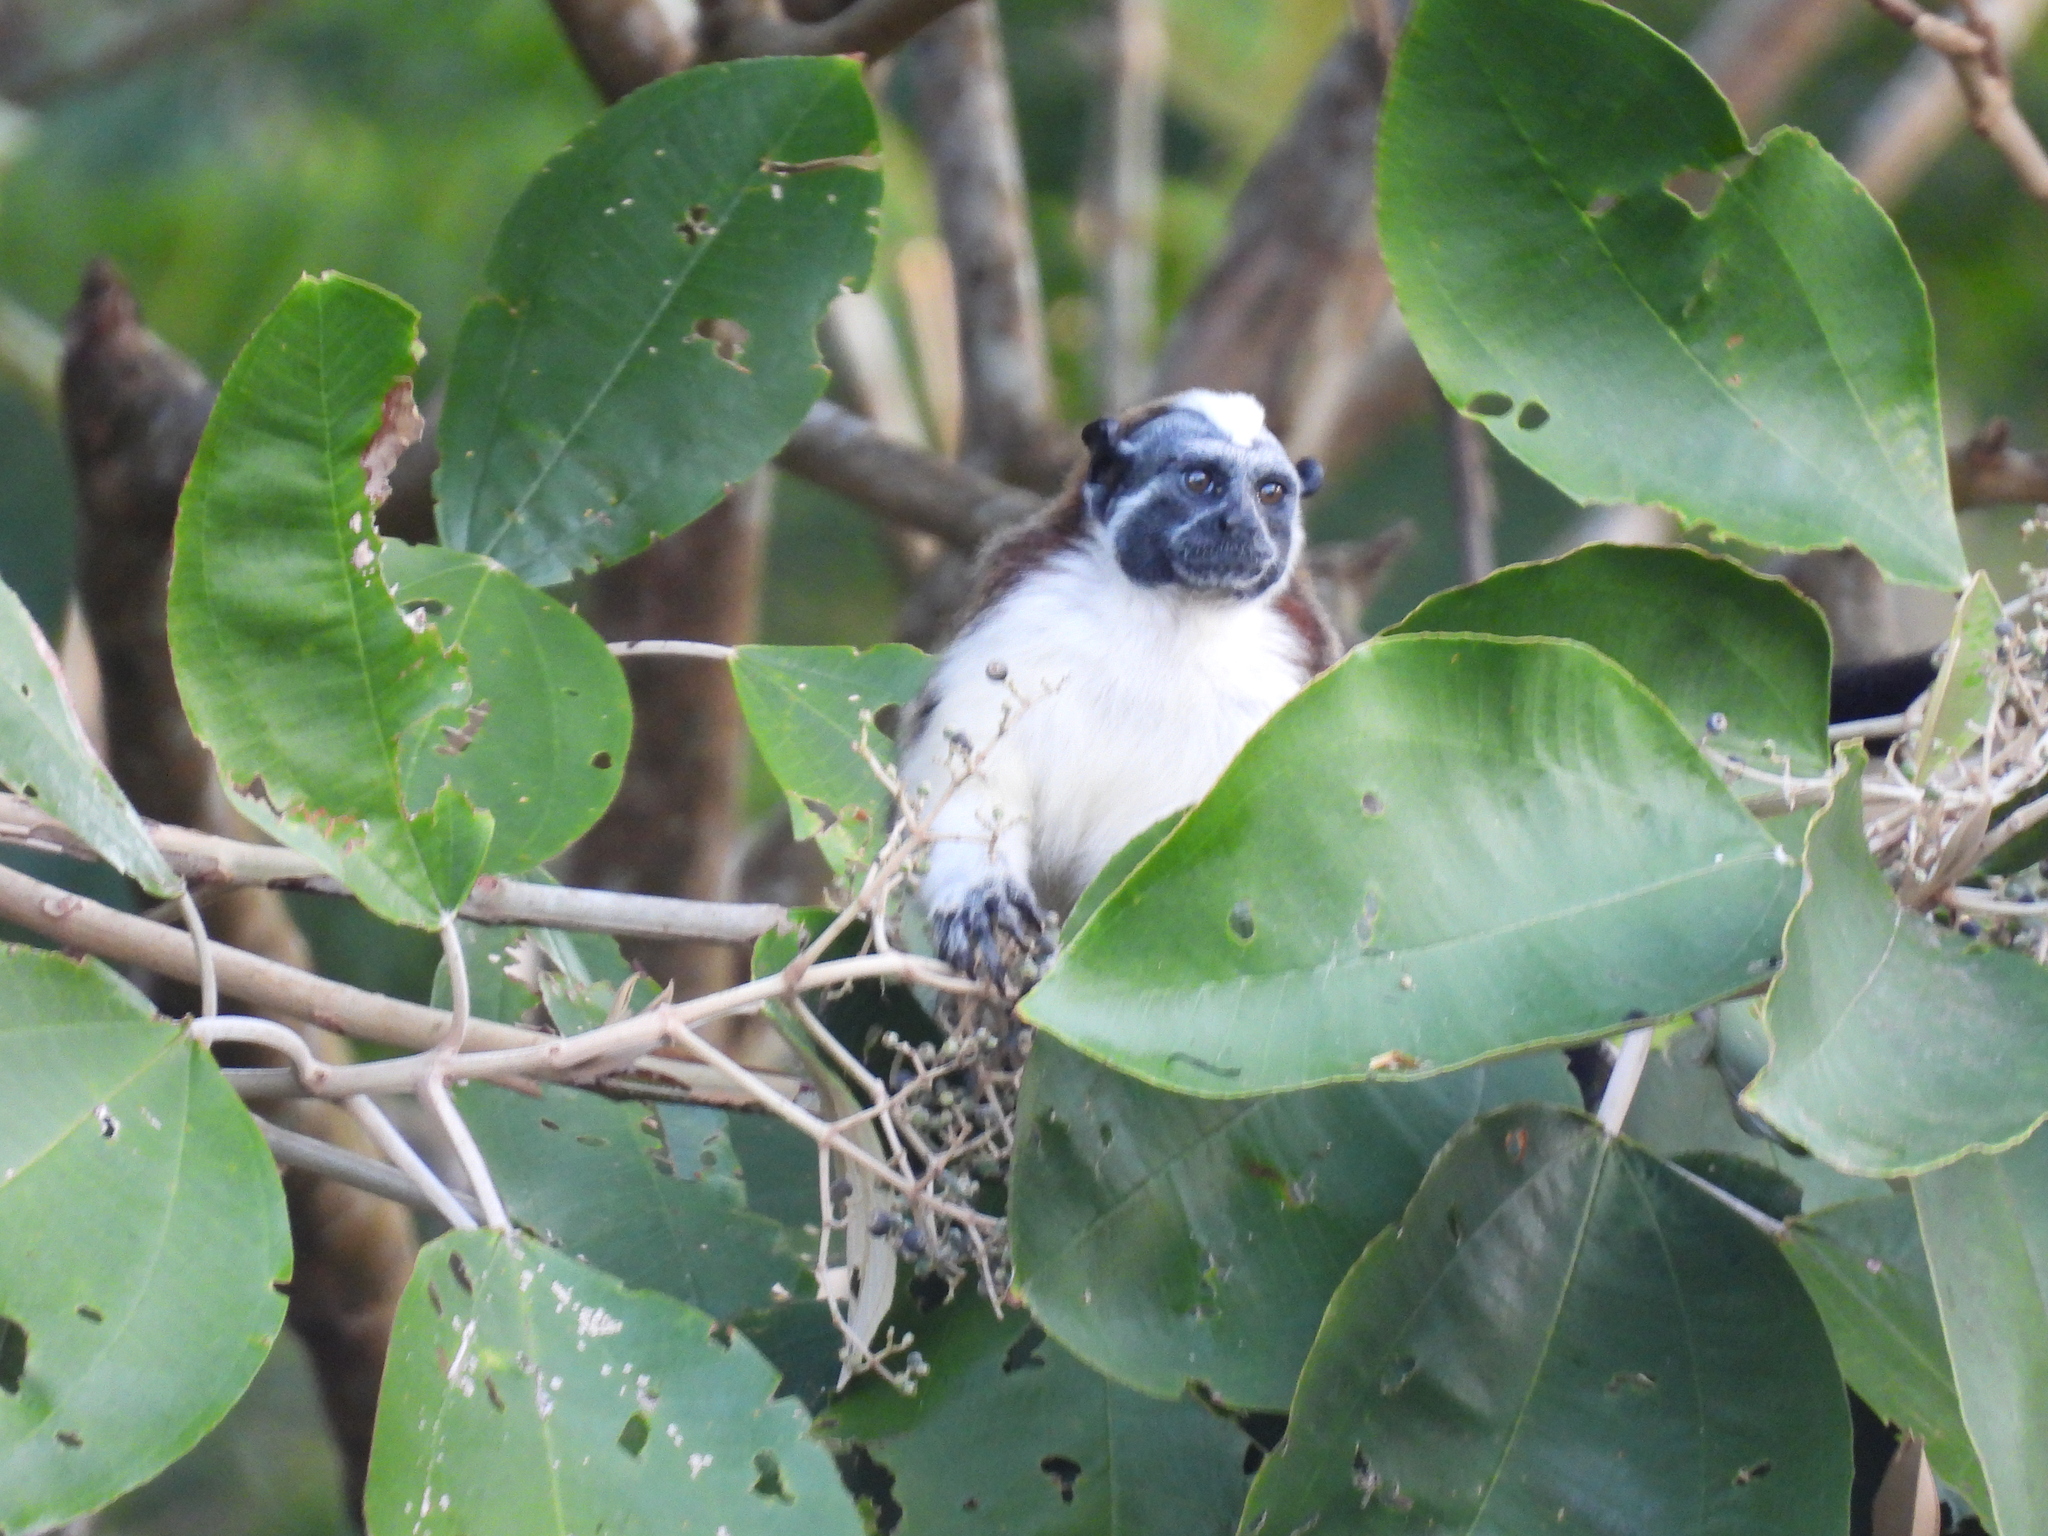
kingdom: Animalia
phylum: Chordata
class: Mammalia
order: Primates
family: Callitrichidae
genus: Saguinus
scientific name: Saguinus geoffroyi
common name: Geoffroy s tamarin
